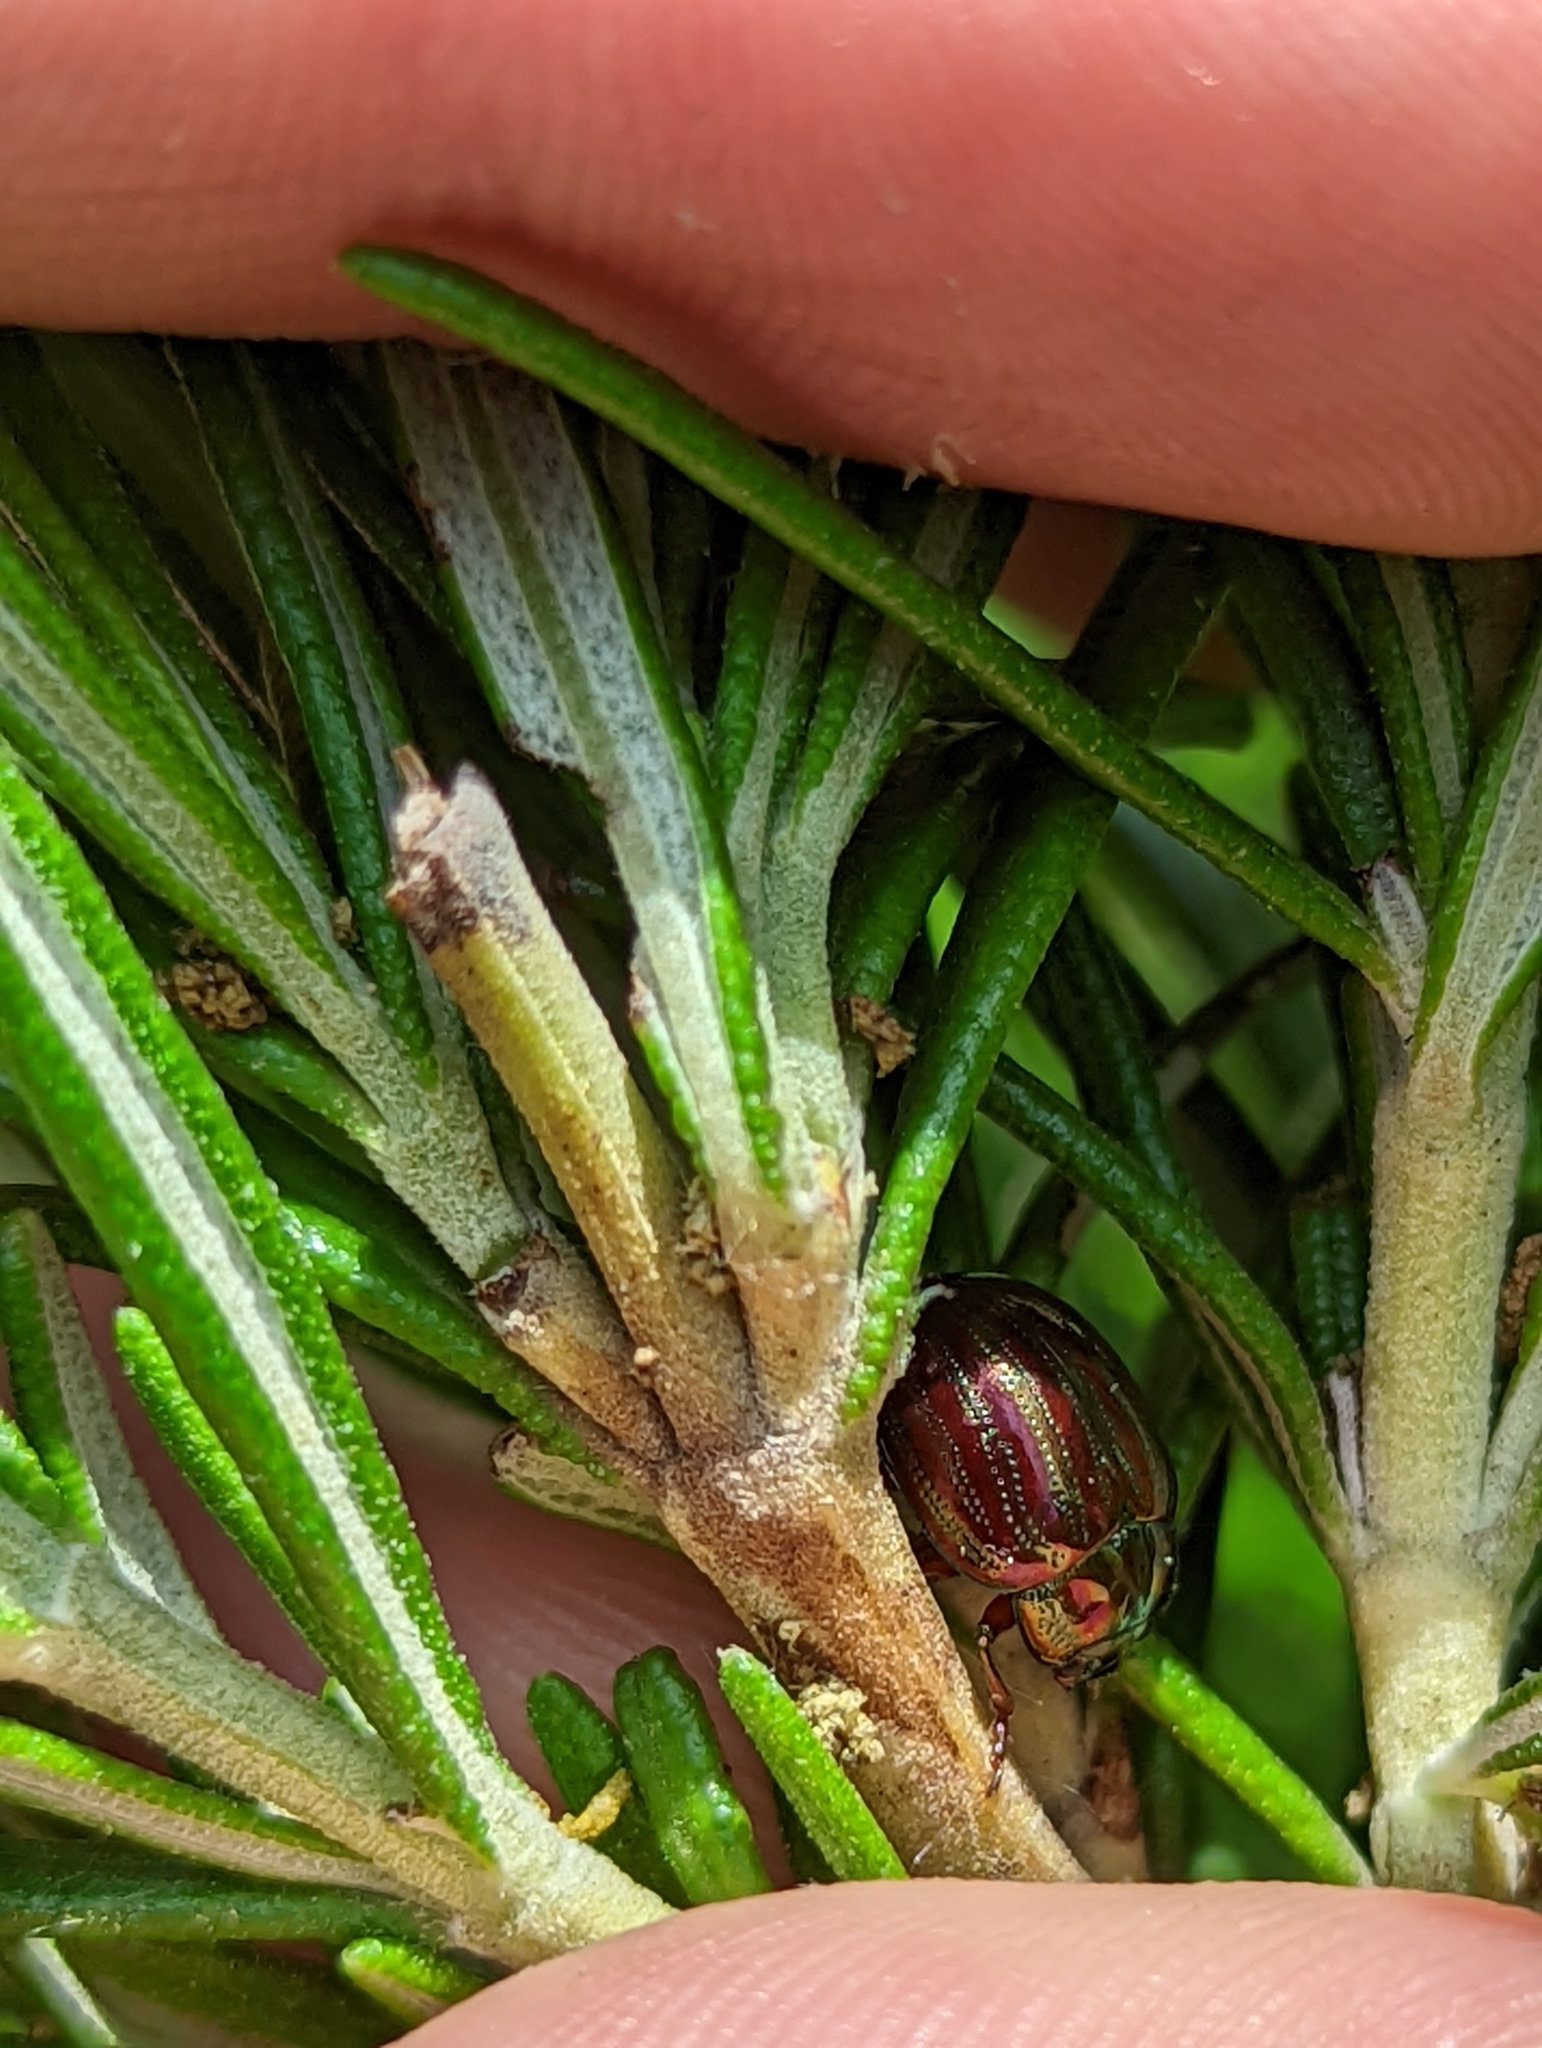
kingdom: Animalia
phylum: Arthropoda
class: Insecta
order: Coleoptera
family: Chrysomelidae
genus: Chrysolina
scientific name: Chrysolina americana
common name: Rosemary beetle
